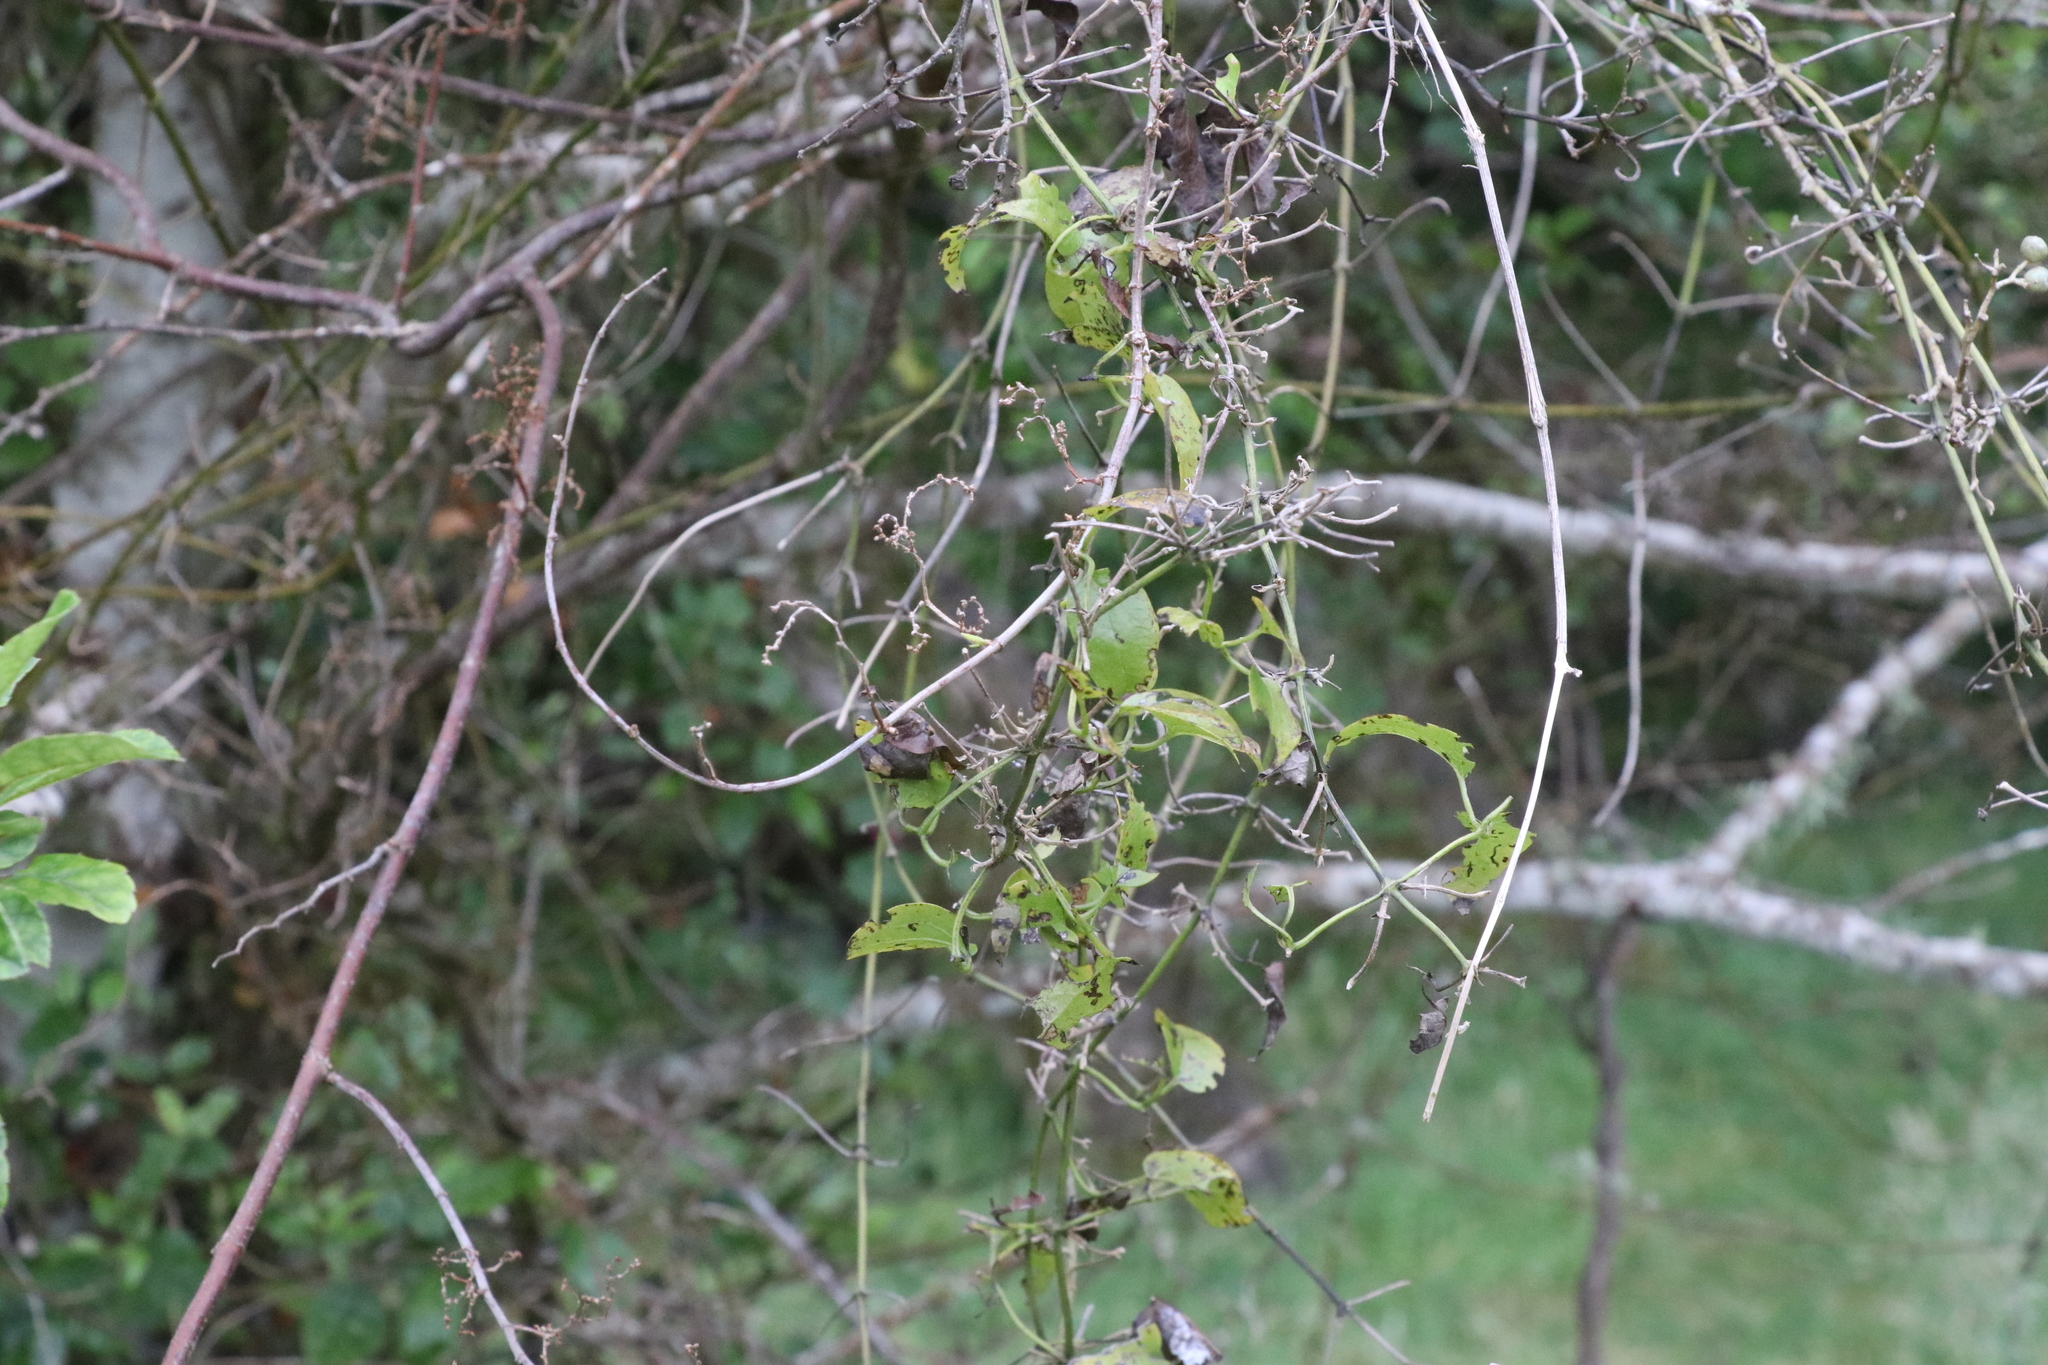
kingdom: Plantae
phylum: Tracheophyta
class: Magnoliopsida
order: Caryophyllales
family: Polygonaceae
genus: Muehlenbeckia
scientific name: Muehlenbeckia australis
